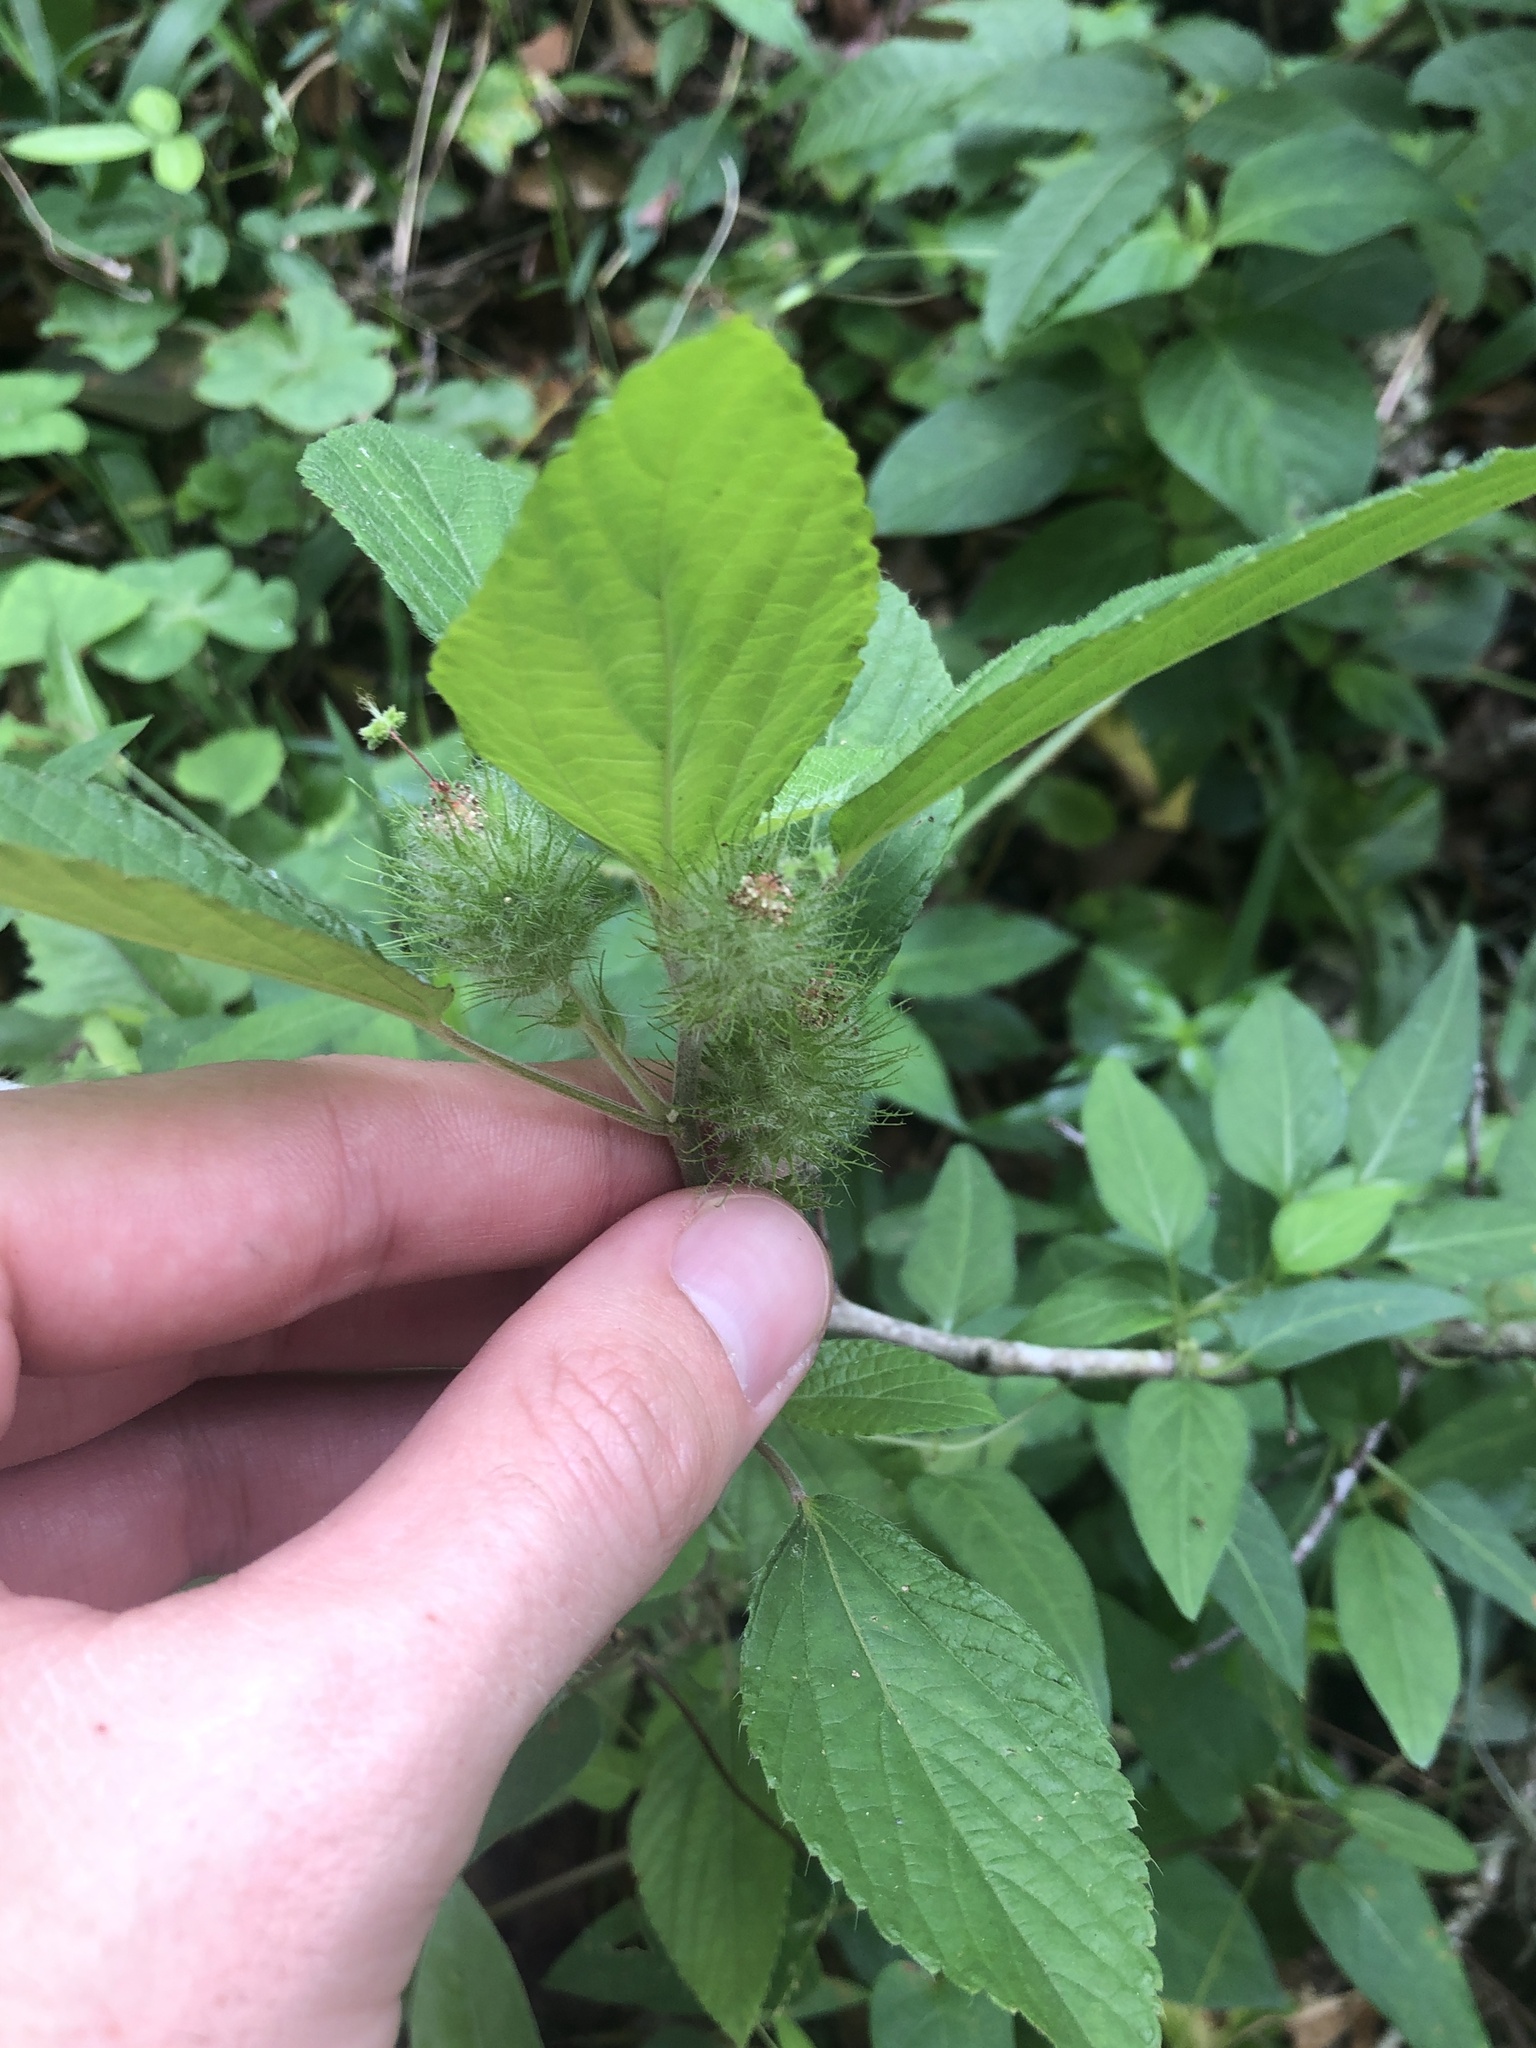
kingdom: Plantae
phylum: Tracheophyta
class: Magnoliopsida
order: Malpighiales
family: Euphorbiaceae
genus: Acalypha
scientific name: Acalypha arvensis
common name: Field copperleaf
